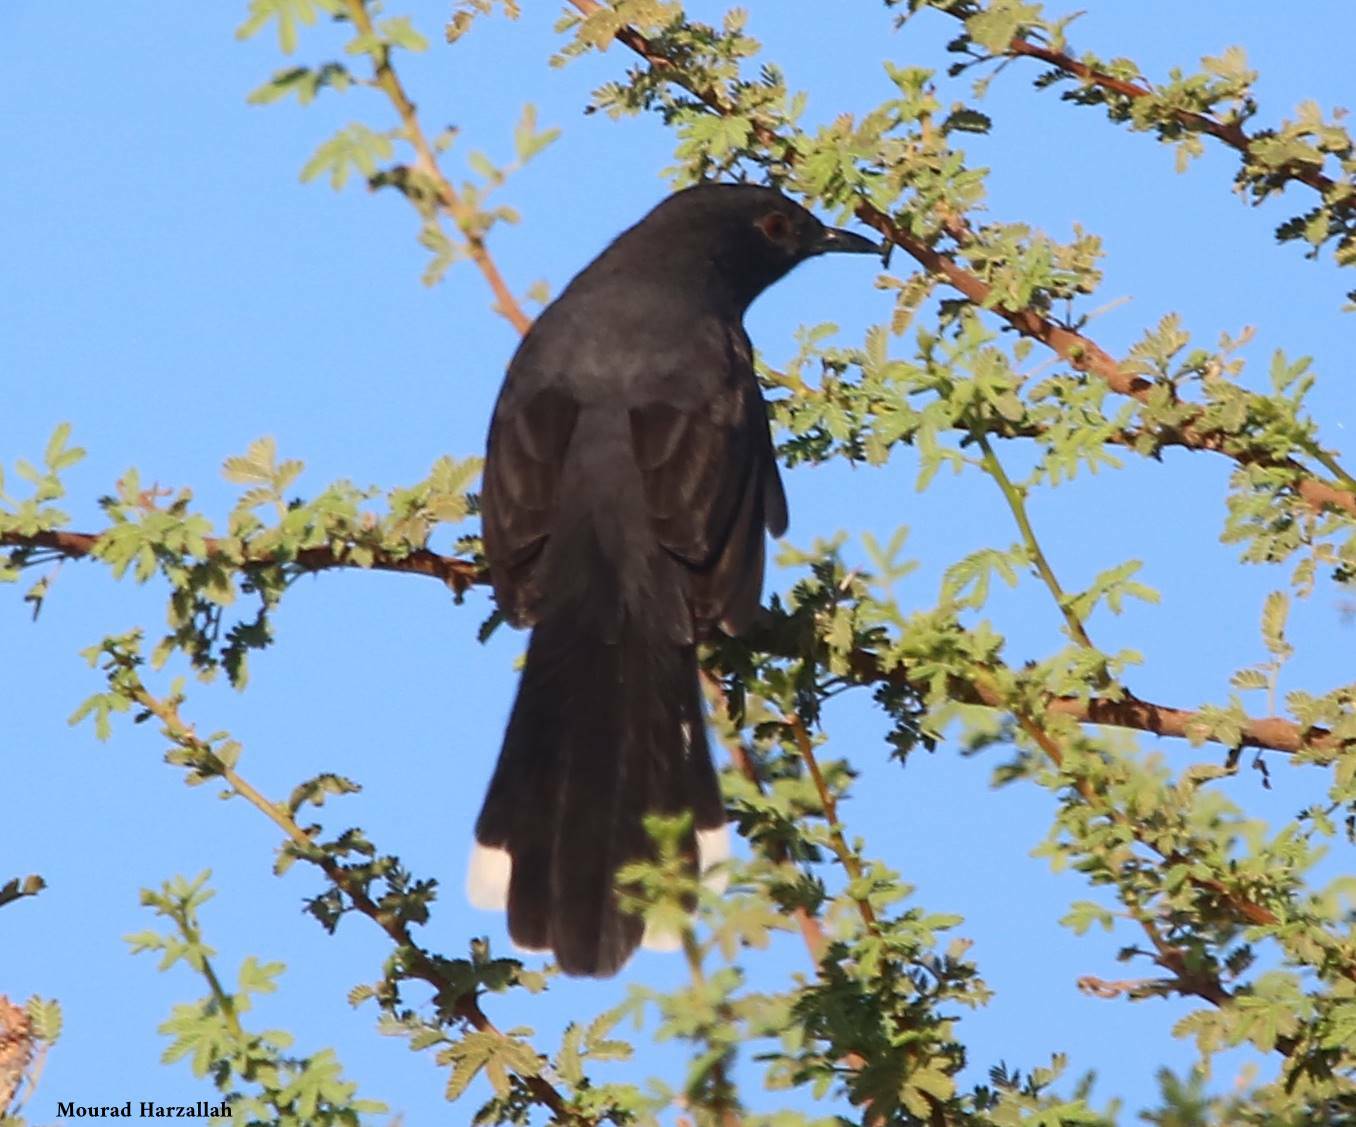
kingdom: Animalia
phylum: Chordata
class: Aves
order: Passeriformes
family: Muscicapidae
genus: Cercotrichas
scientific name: Cercotrichas podobe
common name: Black scrub robin
